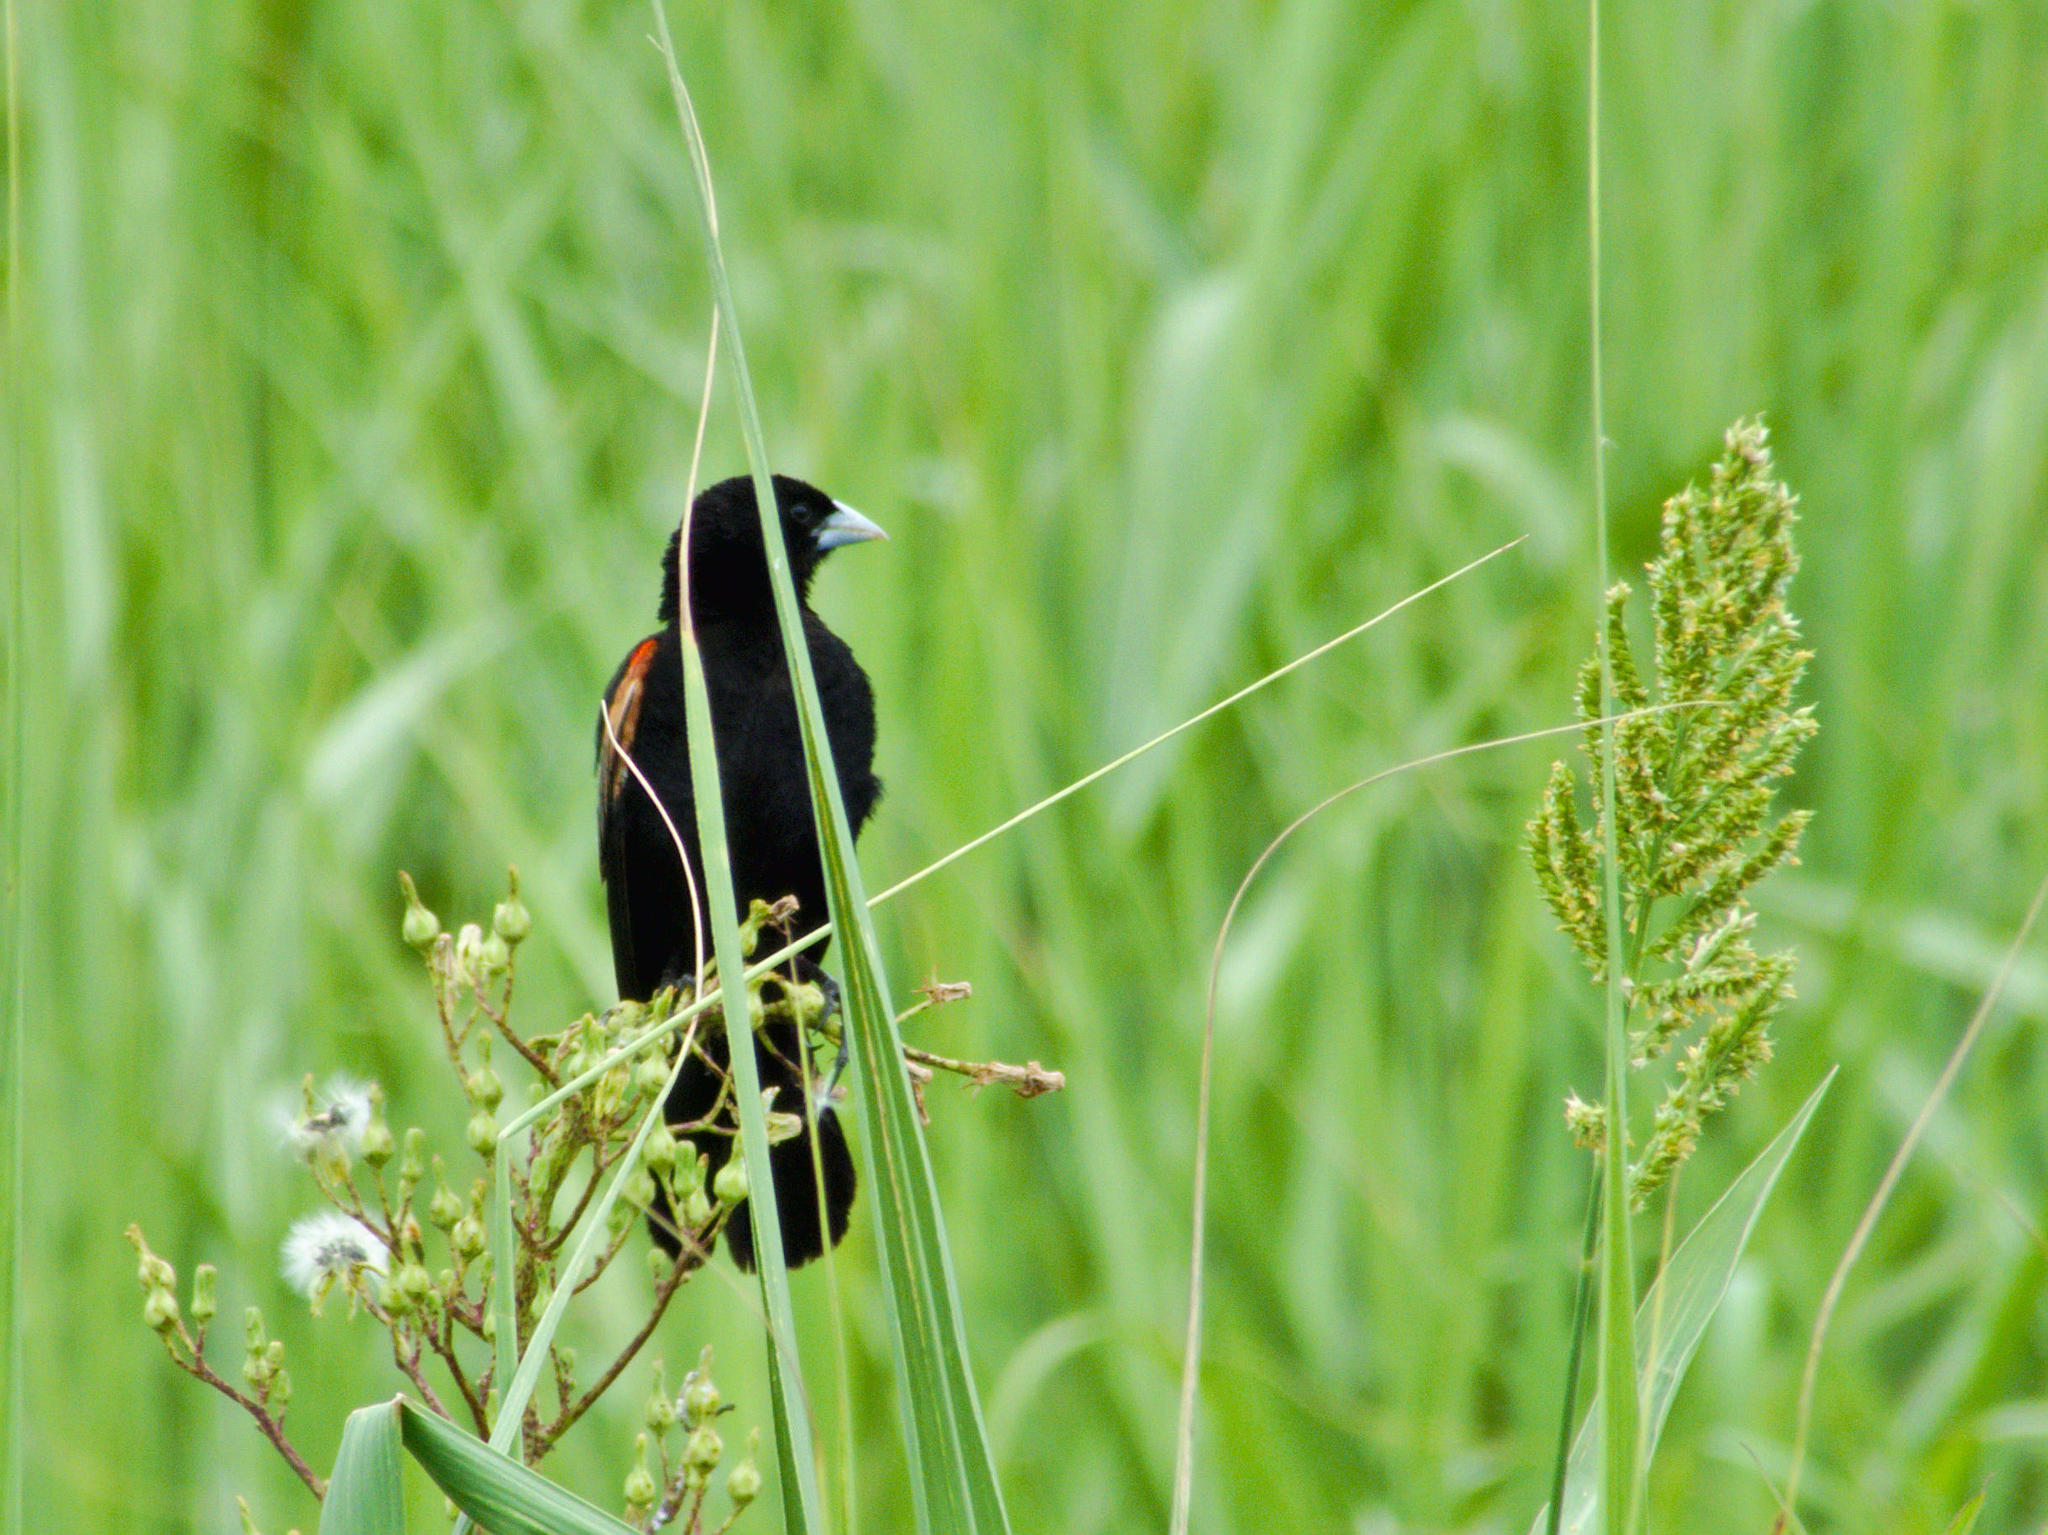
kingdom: Animalia
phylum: Chordata
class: Aves
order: Passeriformes
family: Ploceidae
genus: Euplectes
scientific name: Euplectes axillaris
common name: Fan-tailed widowbird
